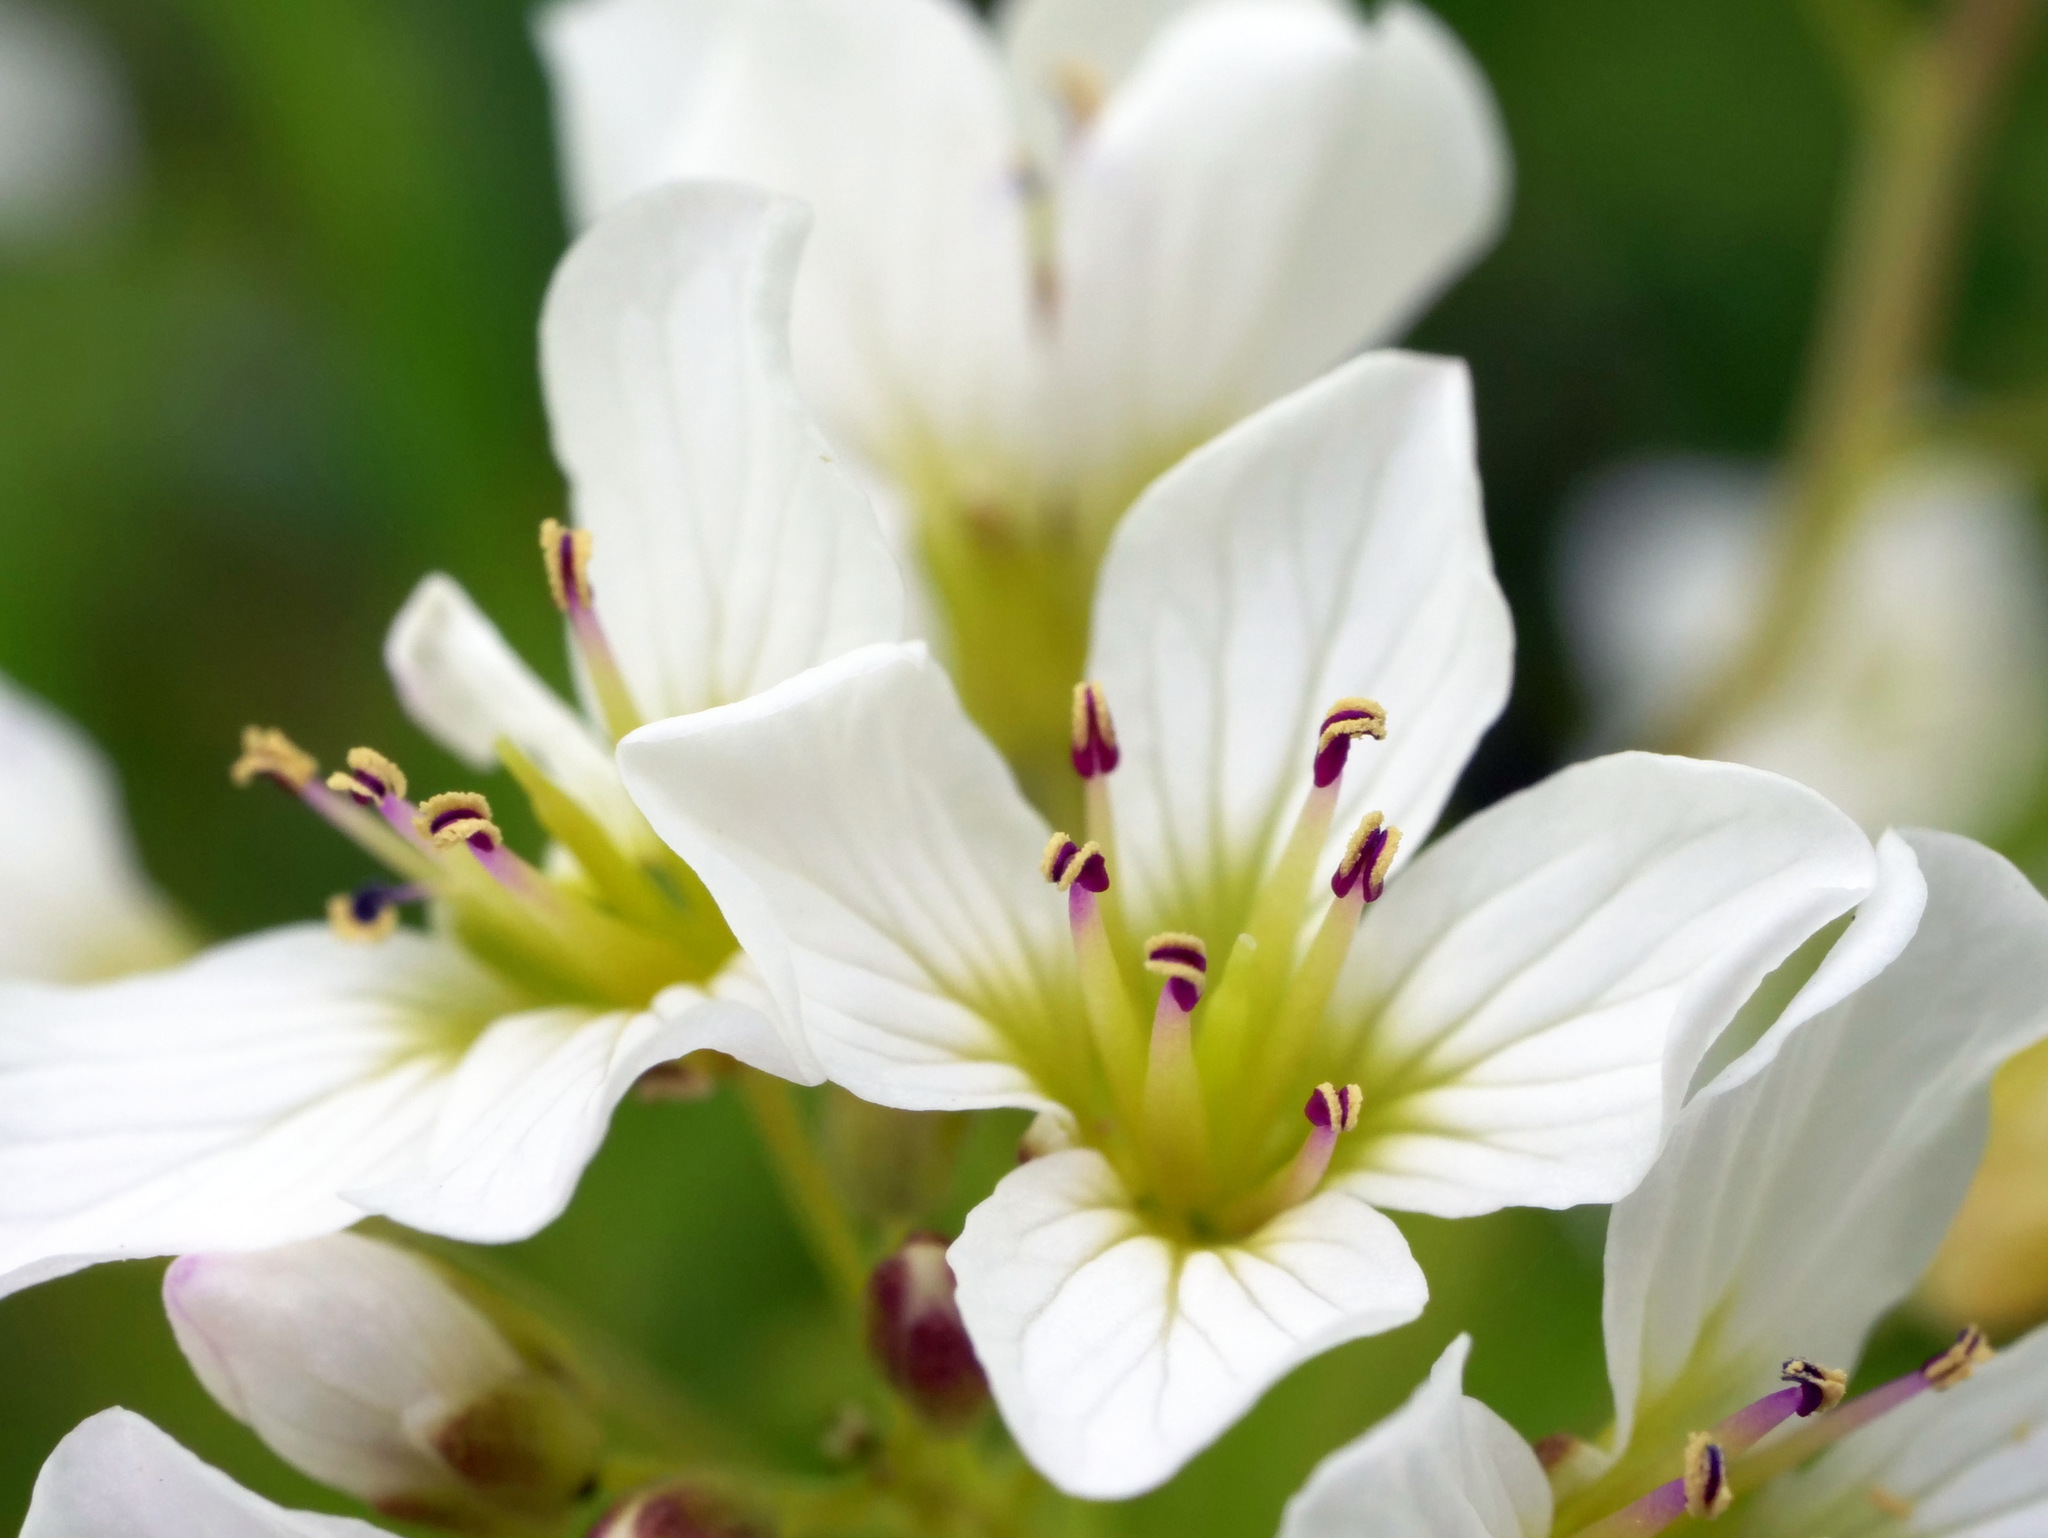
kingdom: Plantae
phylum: Tracheophyta
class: Magnoliopsida
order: Brassicales
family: Brassicaceae
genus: Cardamine
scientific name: Cardamine amara
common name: Large bitter-cress
